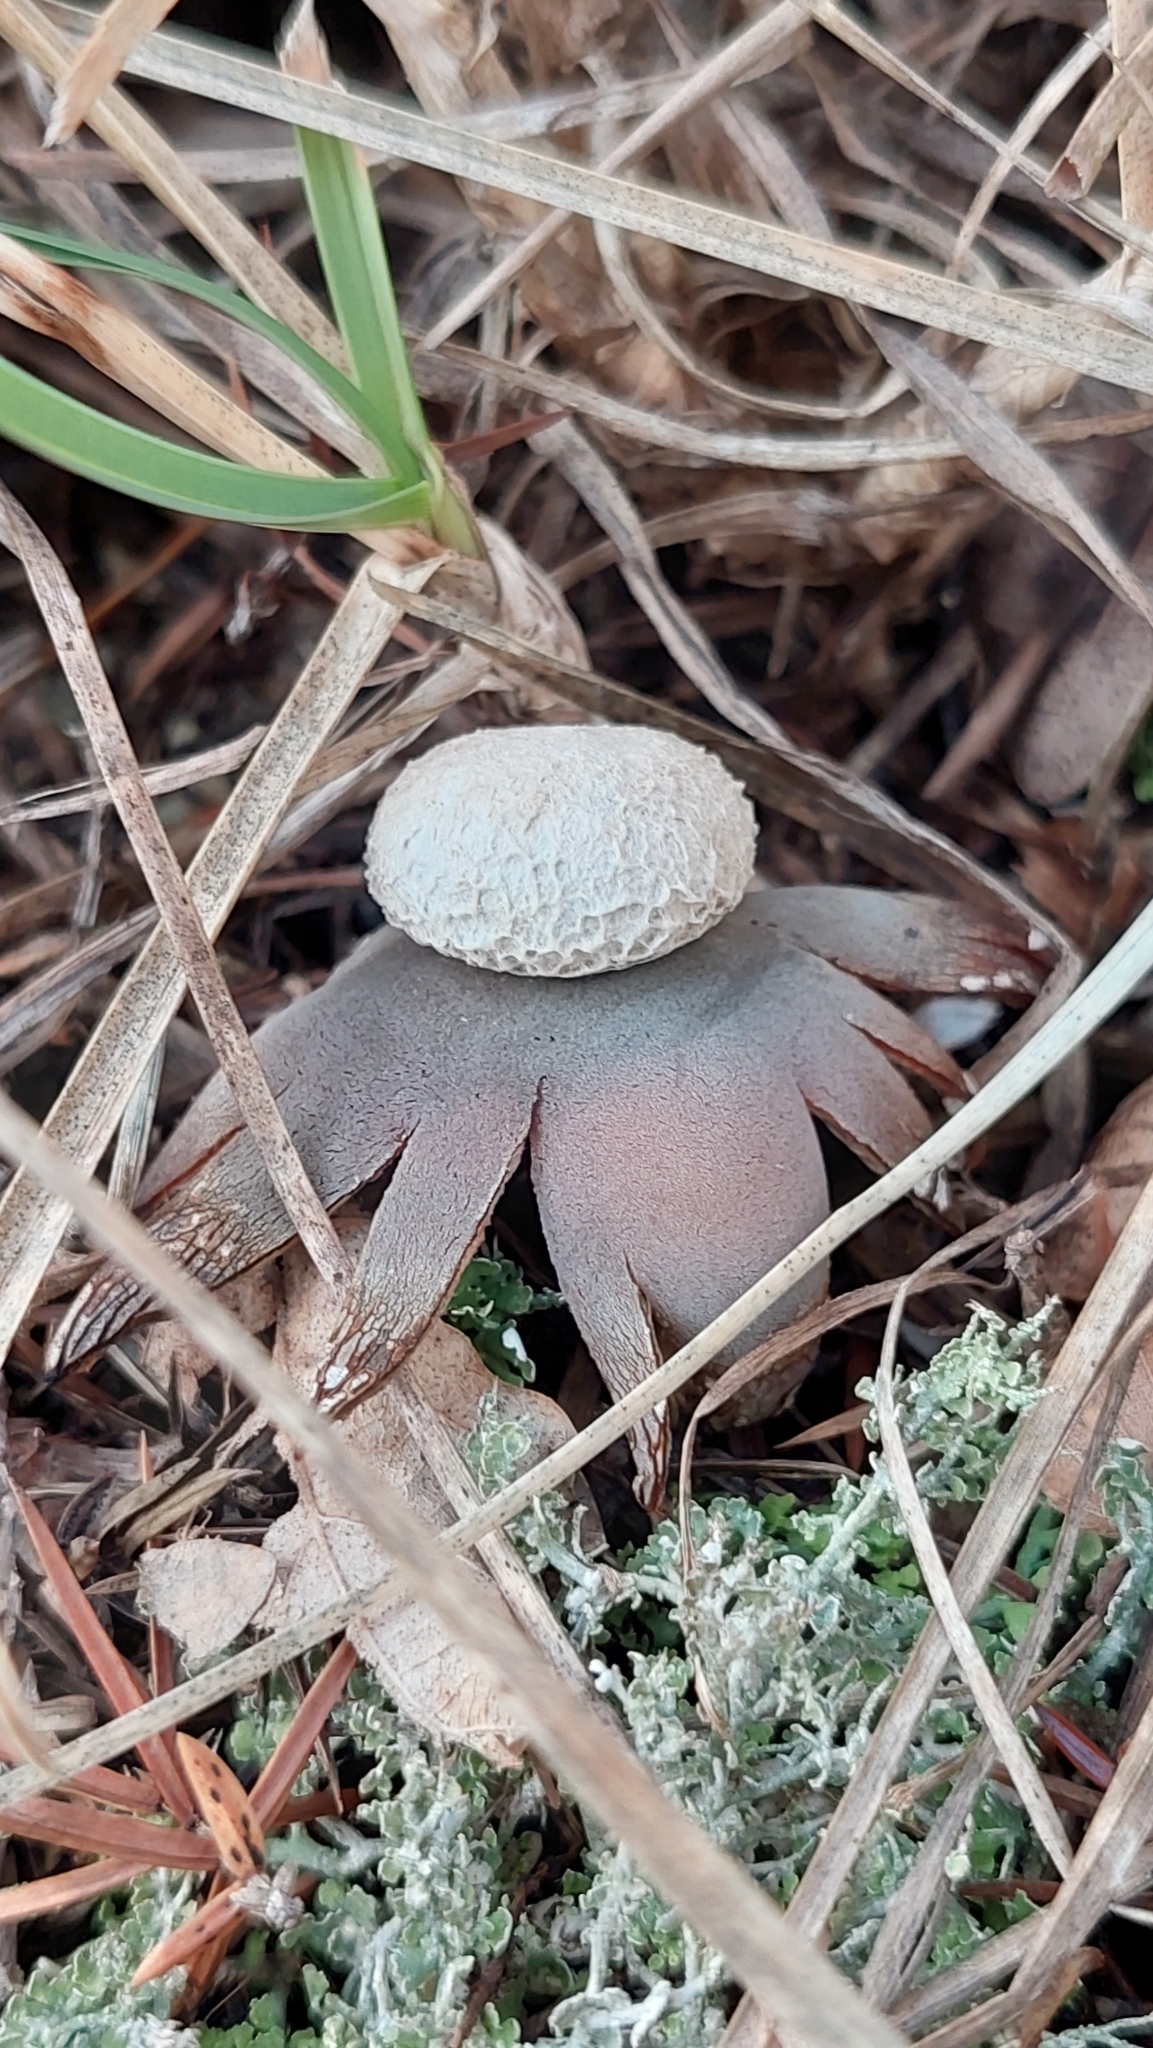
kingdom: Fungi
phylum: Basidiomycota
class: Agaricomycetes
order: Boletales
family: Diplocystidiaceae
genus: Astraeus
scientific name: Astraeus hygrometricus
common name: Barometer earthstar
